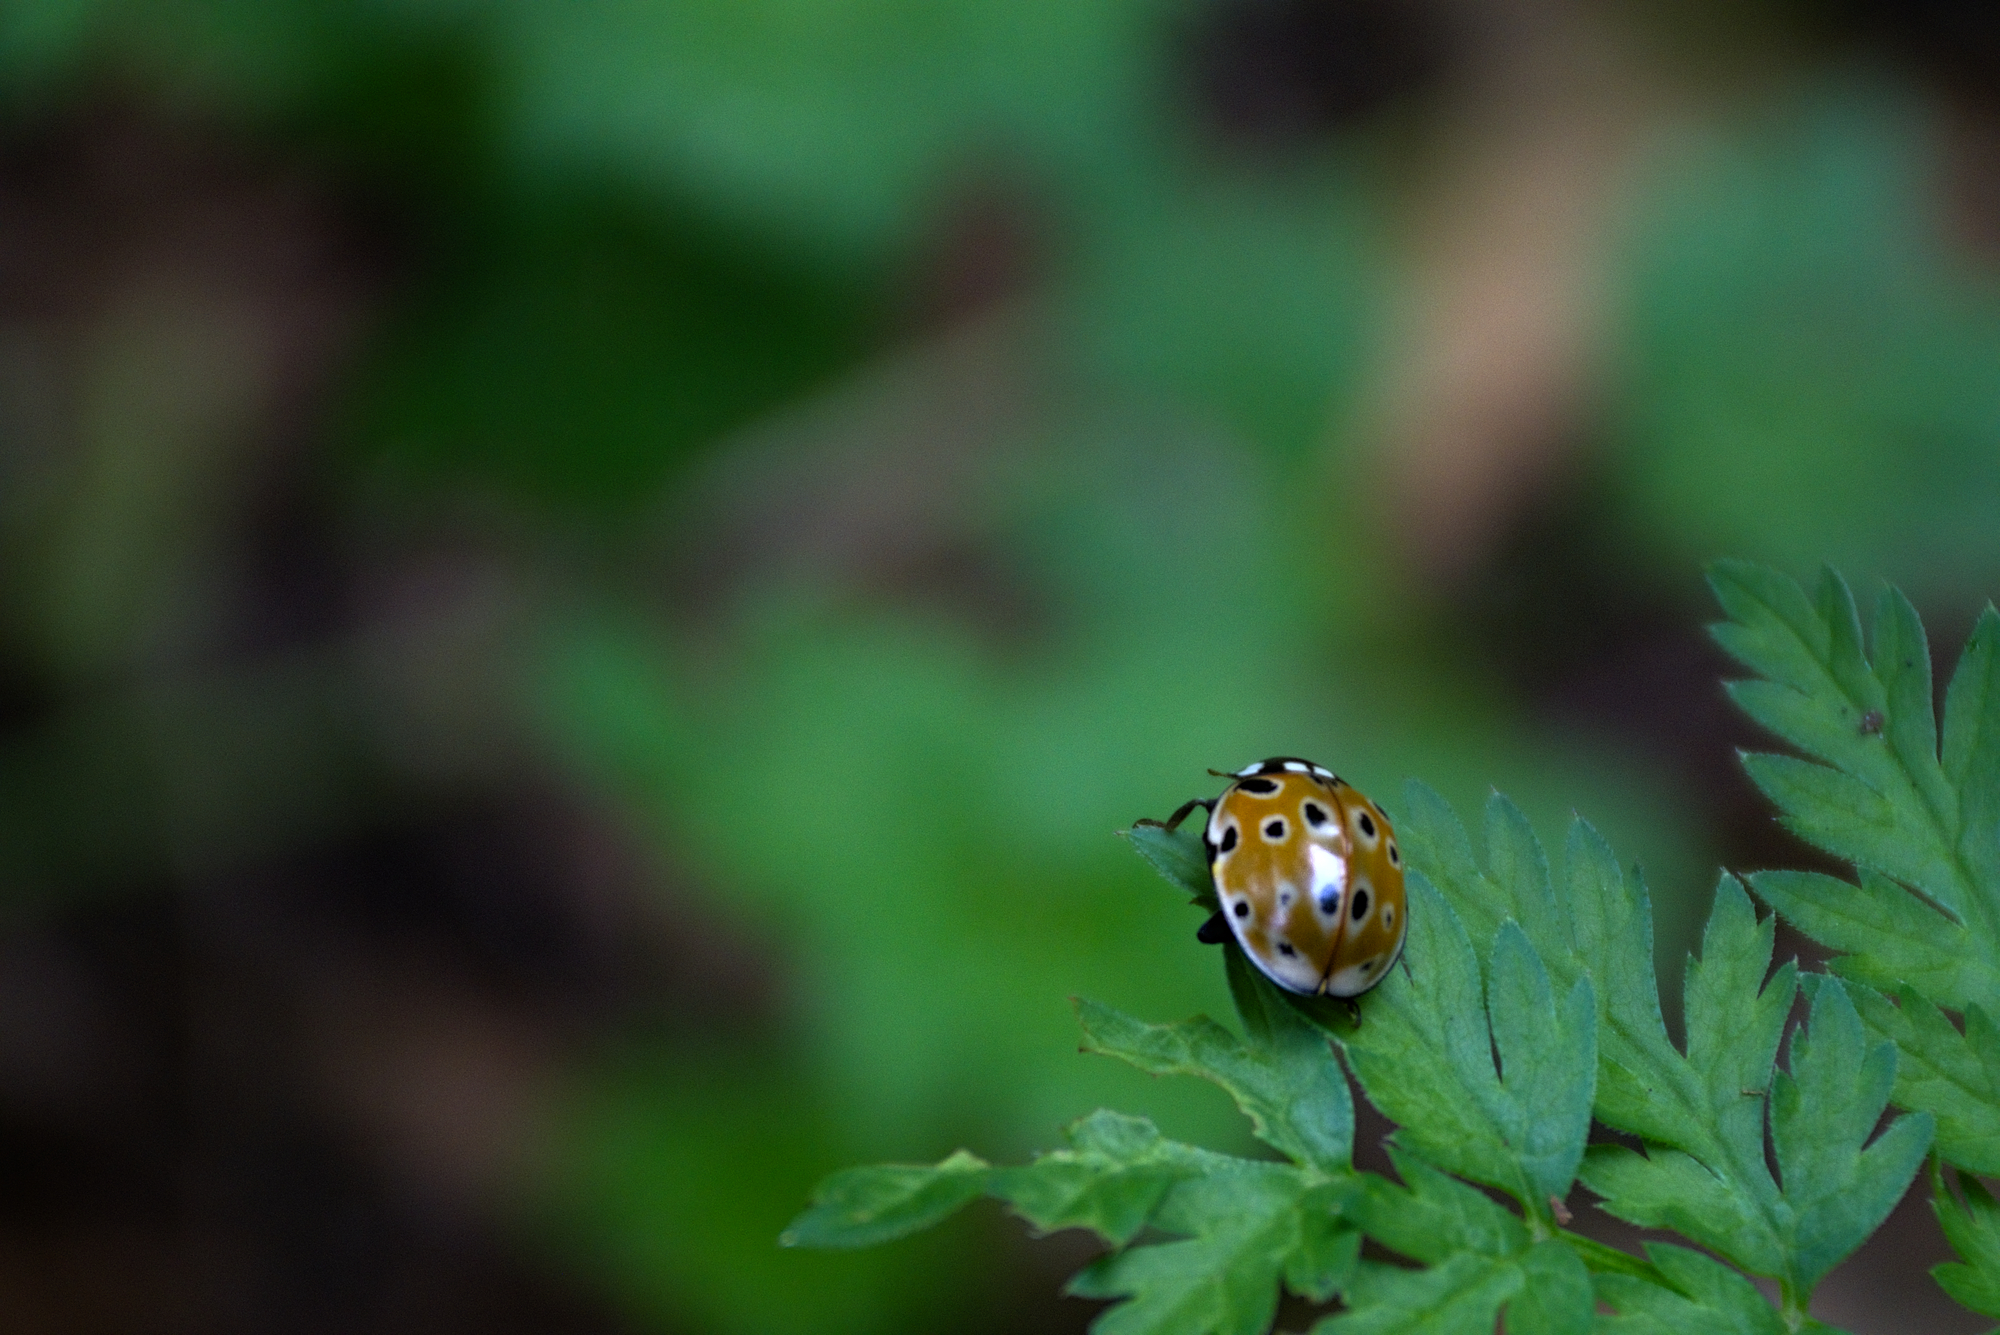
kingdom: Animalia
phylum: Arthropoda
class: Insecta
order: Coleoptera
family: Coccinellidae
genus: Anatis
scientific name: Anatis ocellata
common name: Eyed ladybird
